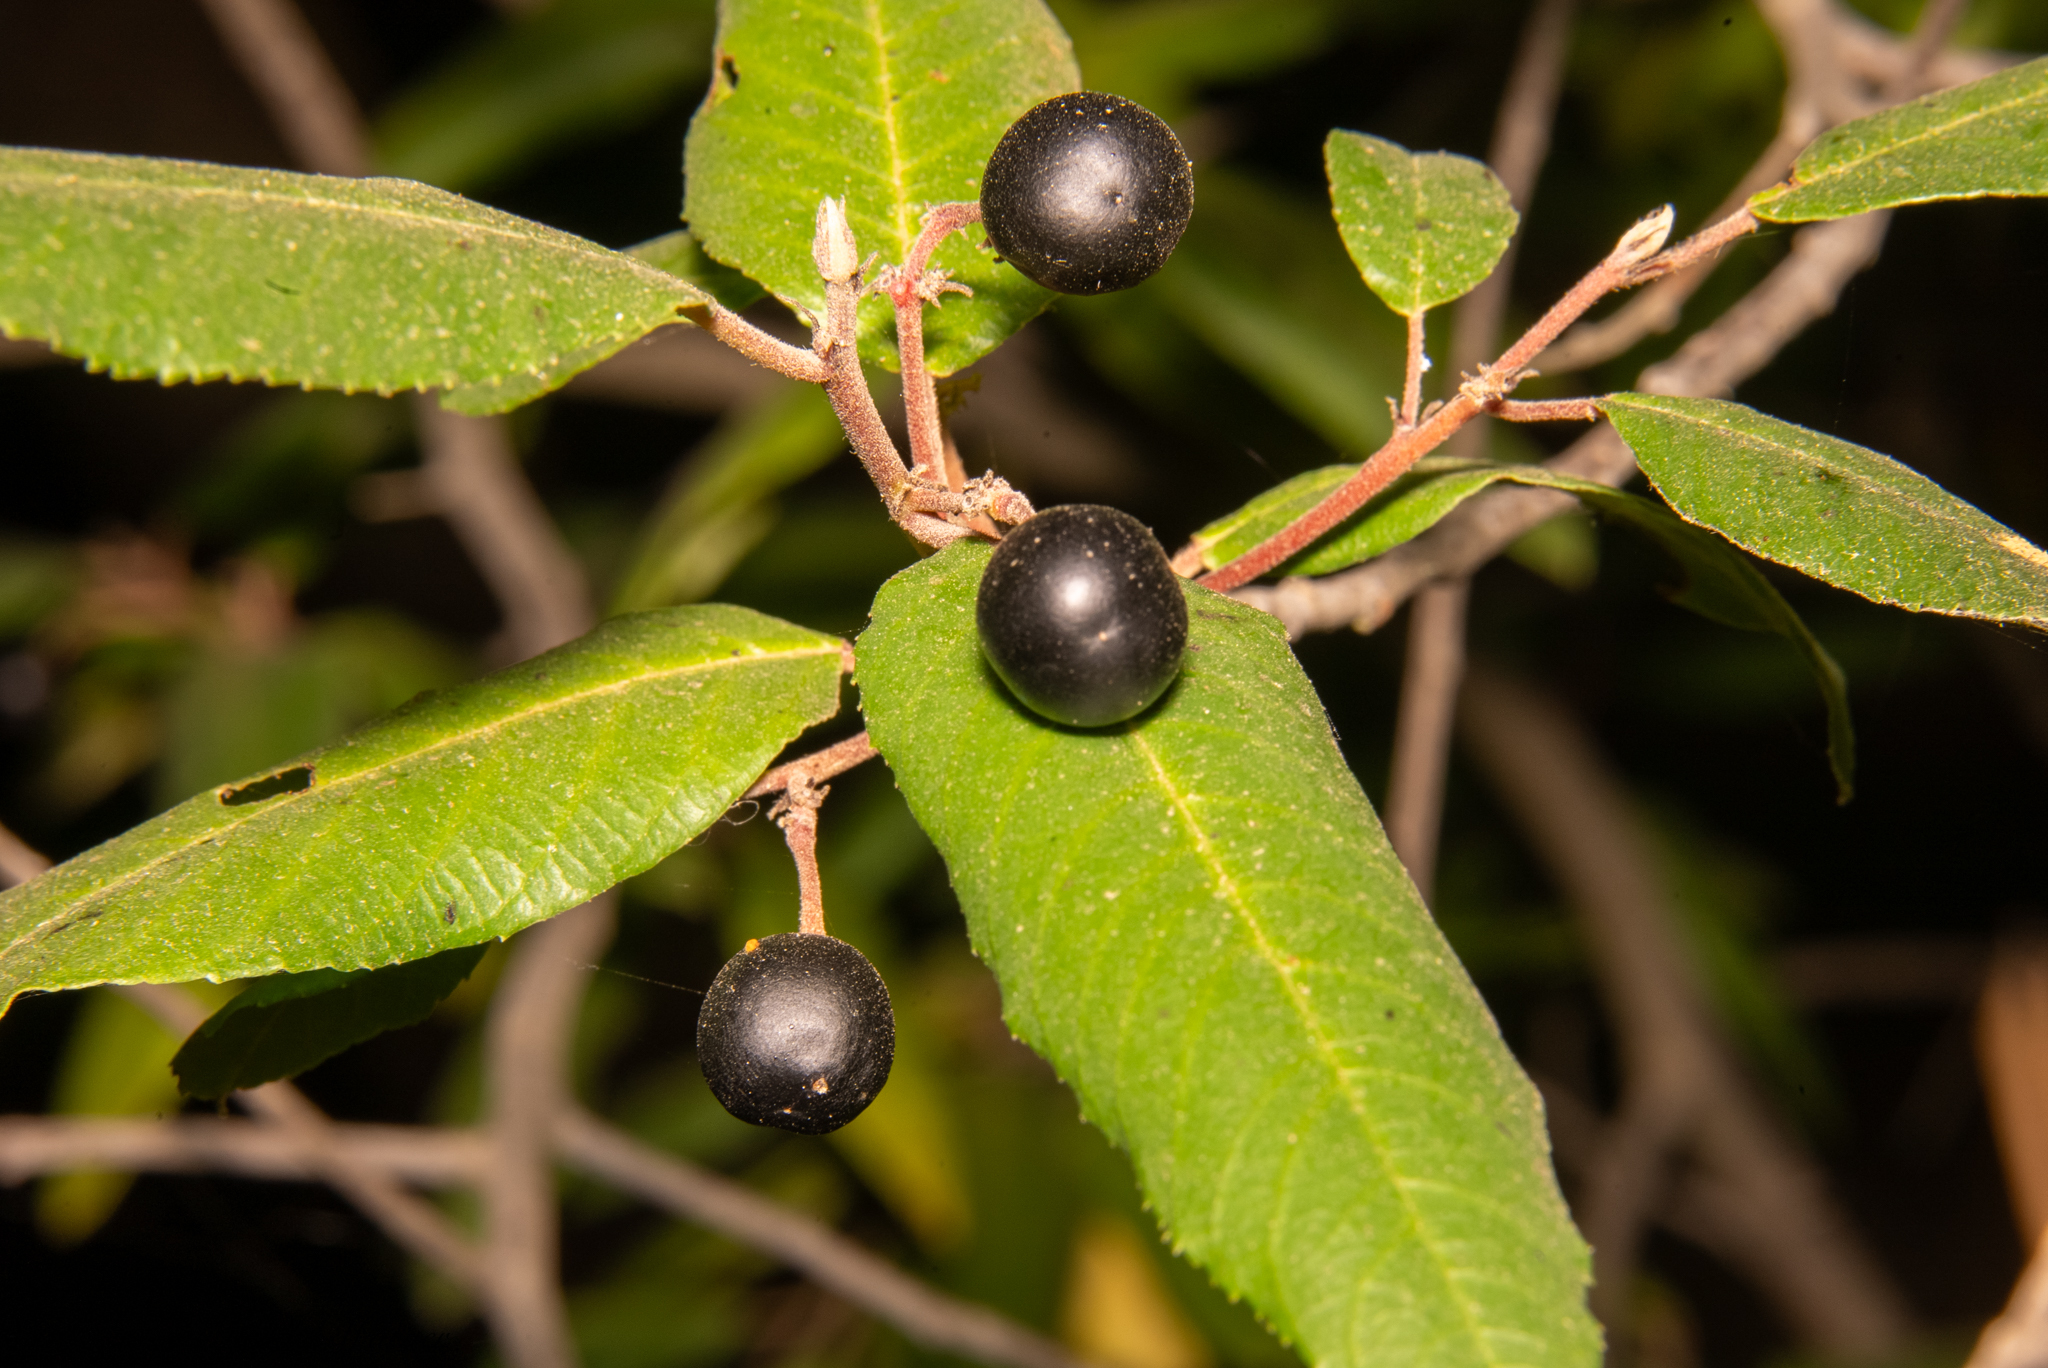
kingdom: Plantae
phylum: Tracheophyta
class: Magnoliopsida
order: Rosales
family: Rhamnaceae
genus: Frangula
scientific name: Frangula californica
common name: California buckthorn
